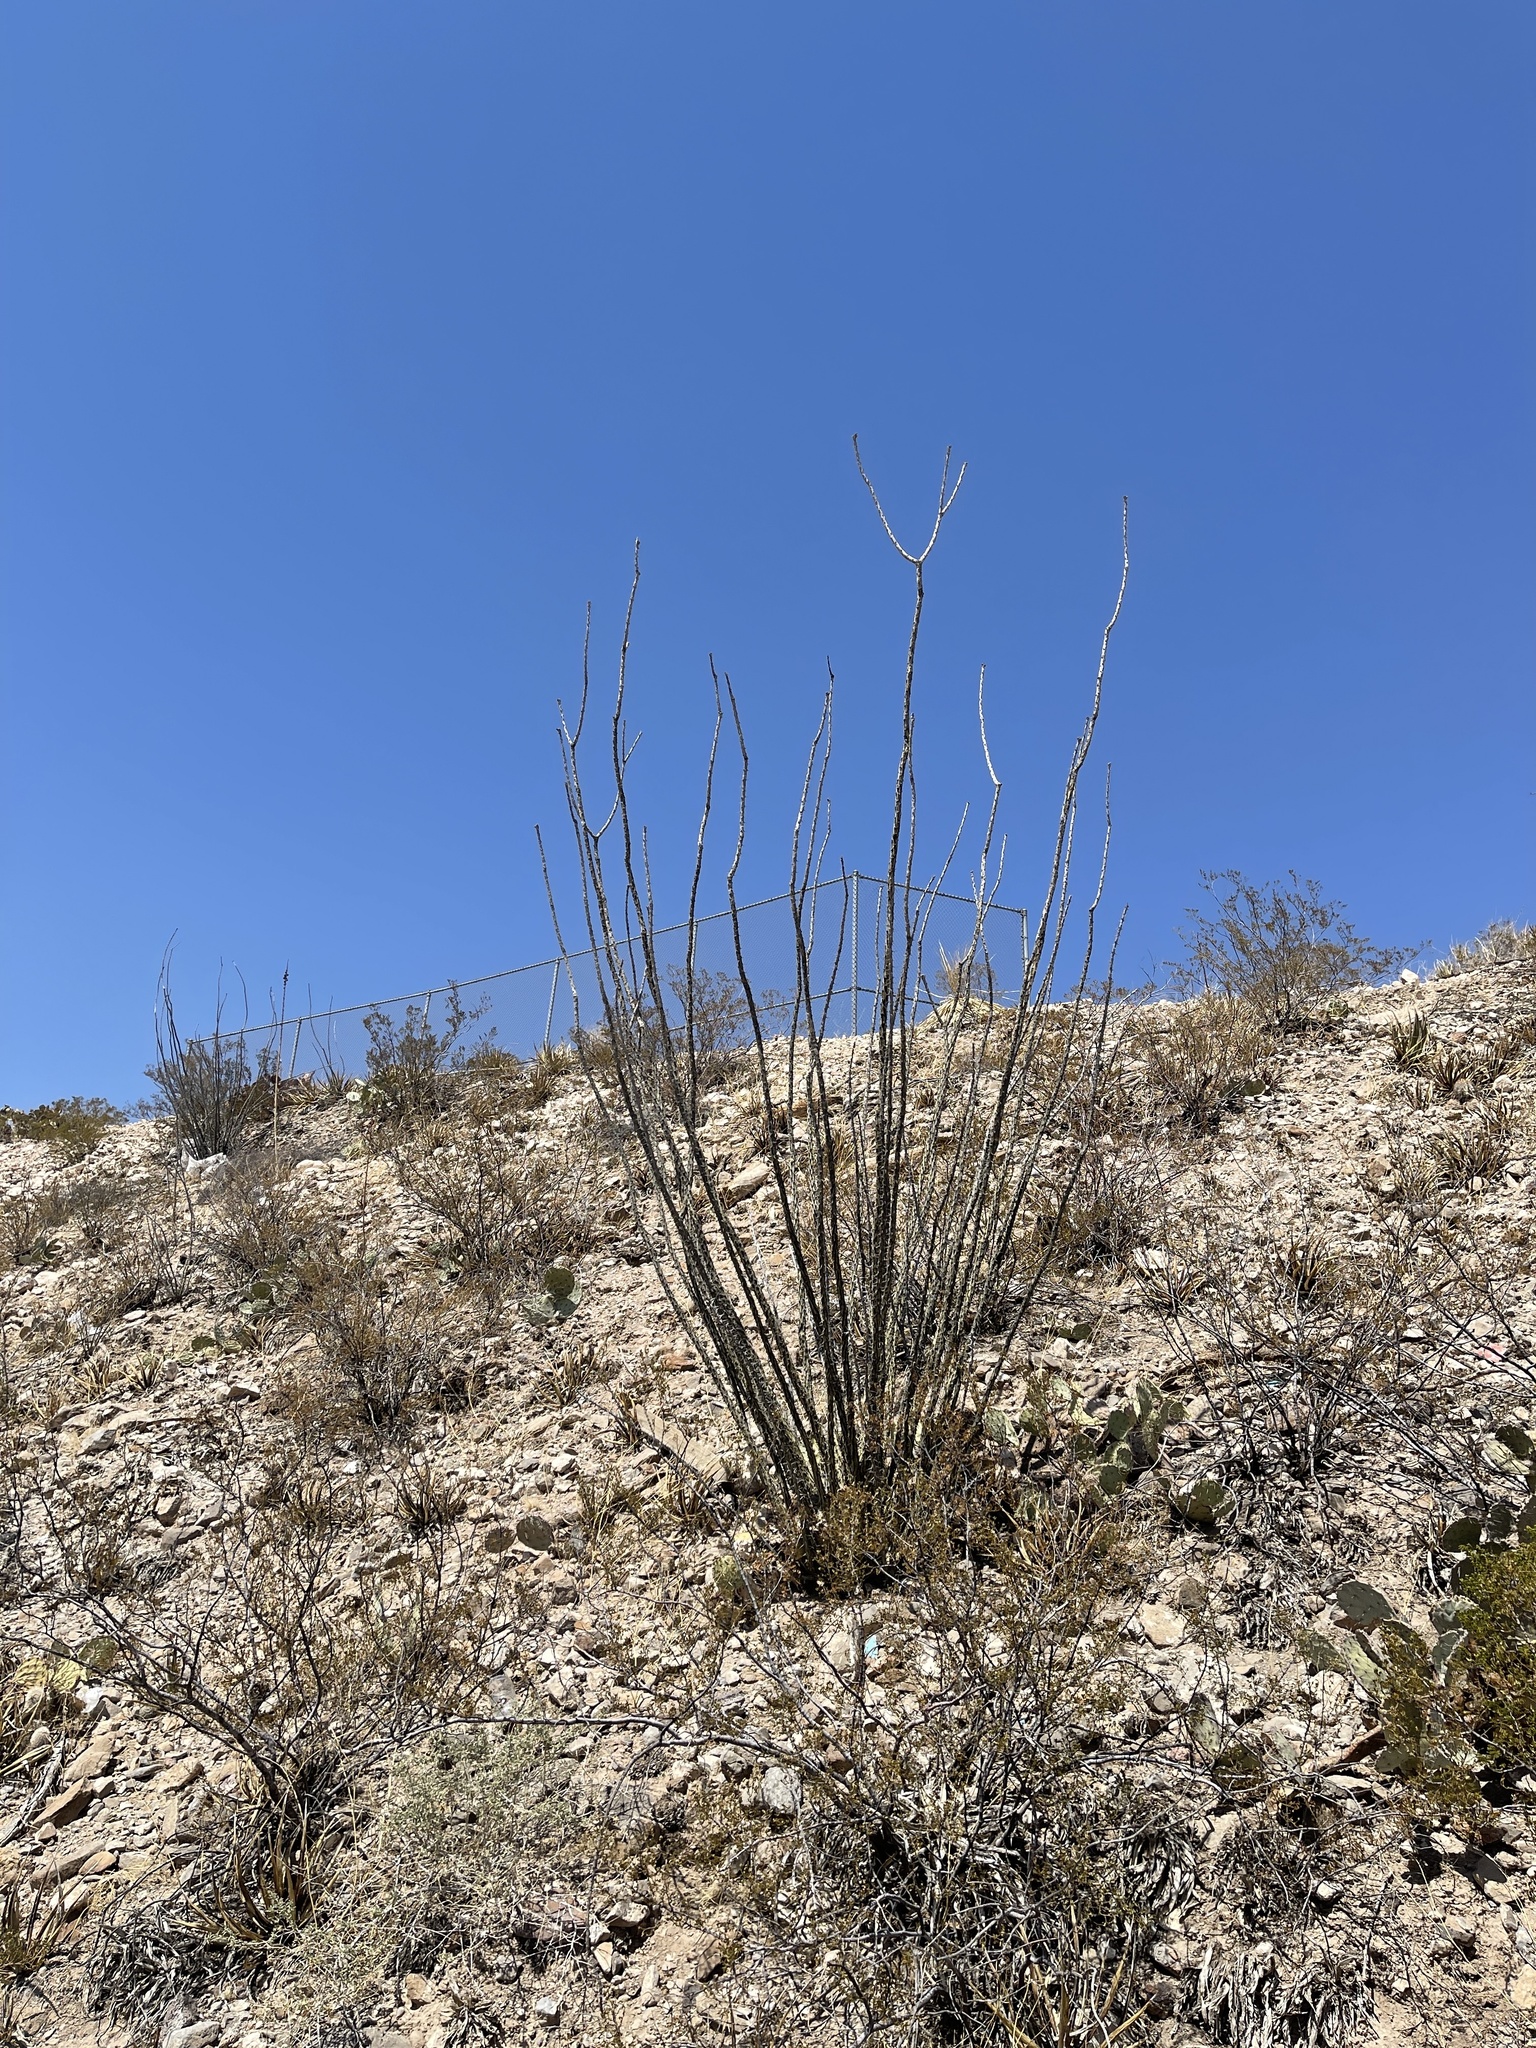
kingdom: Plantae
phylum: Tracheophyta
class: Magnoliopsida
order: Ericales
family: Fouquieriaceae
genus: Fouquieria
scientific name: Fouquieria splendens
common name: Vine-cactus
